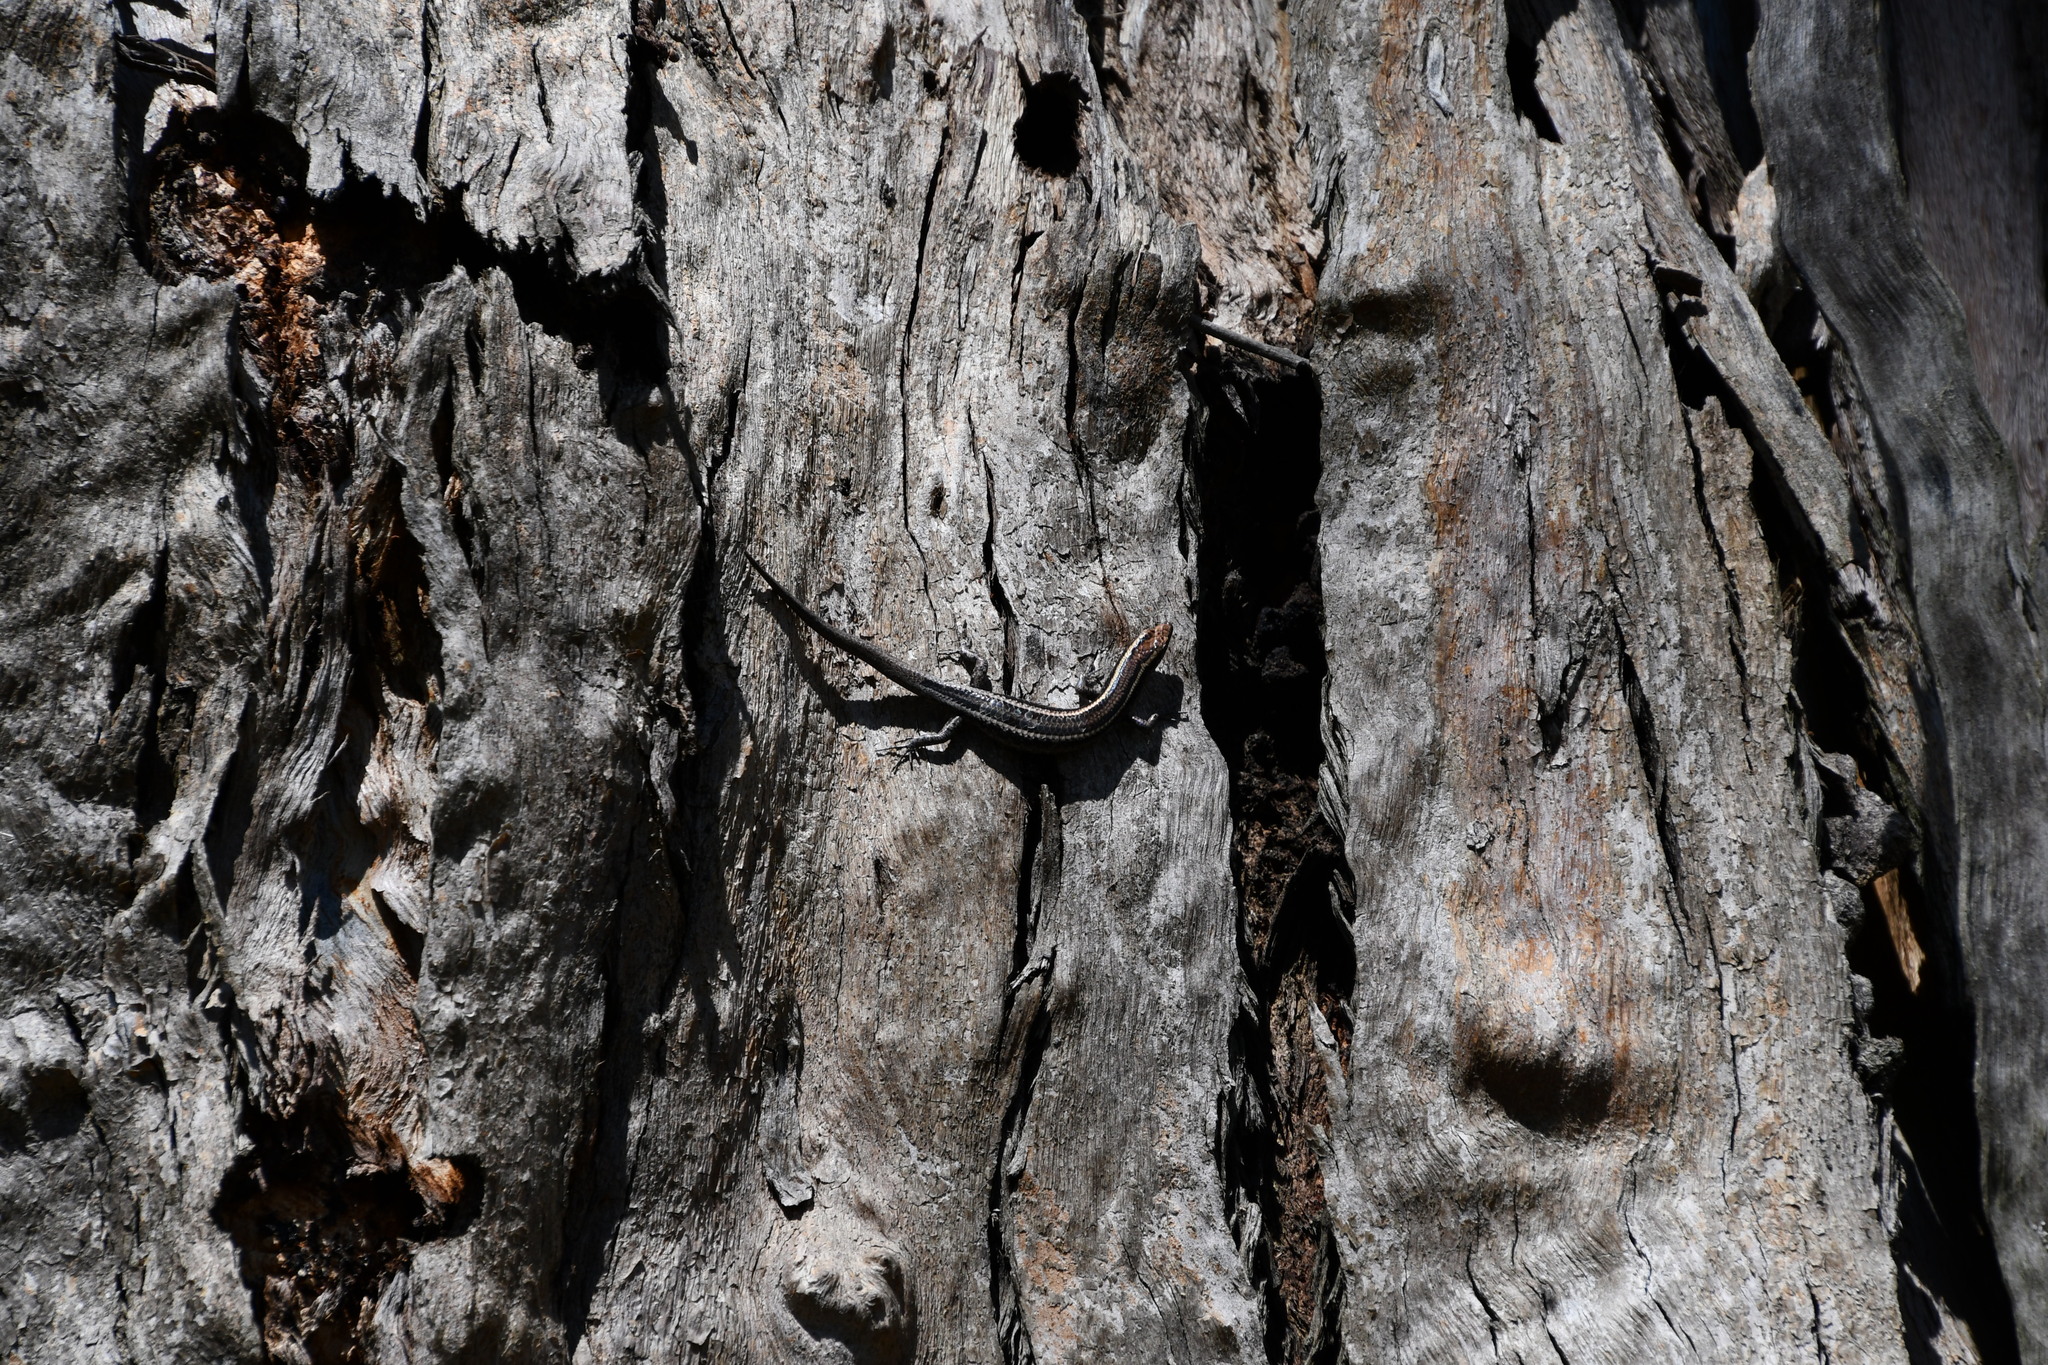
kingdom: Animalia
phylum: Chordata
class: Squamata
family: Scincidae
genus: Cryptoblepharus
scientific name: Cryptoblepharus pulcher
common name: Elegant snake-eyed skink
